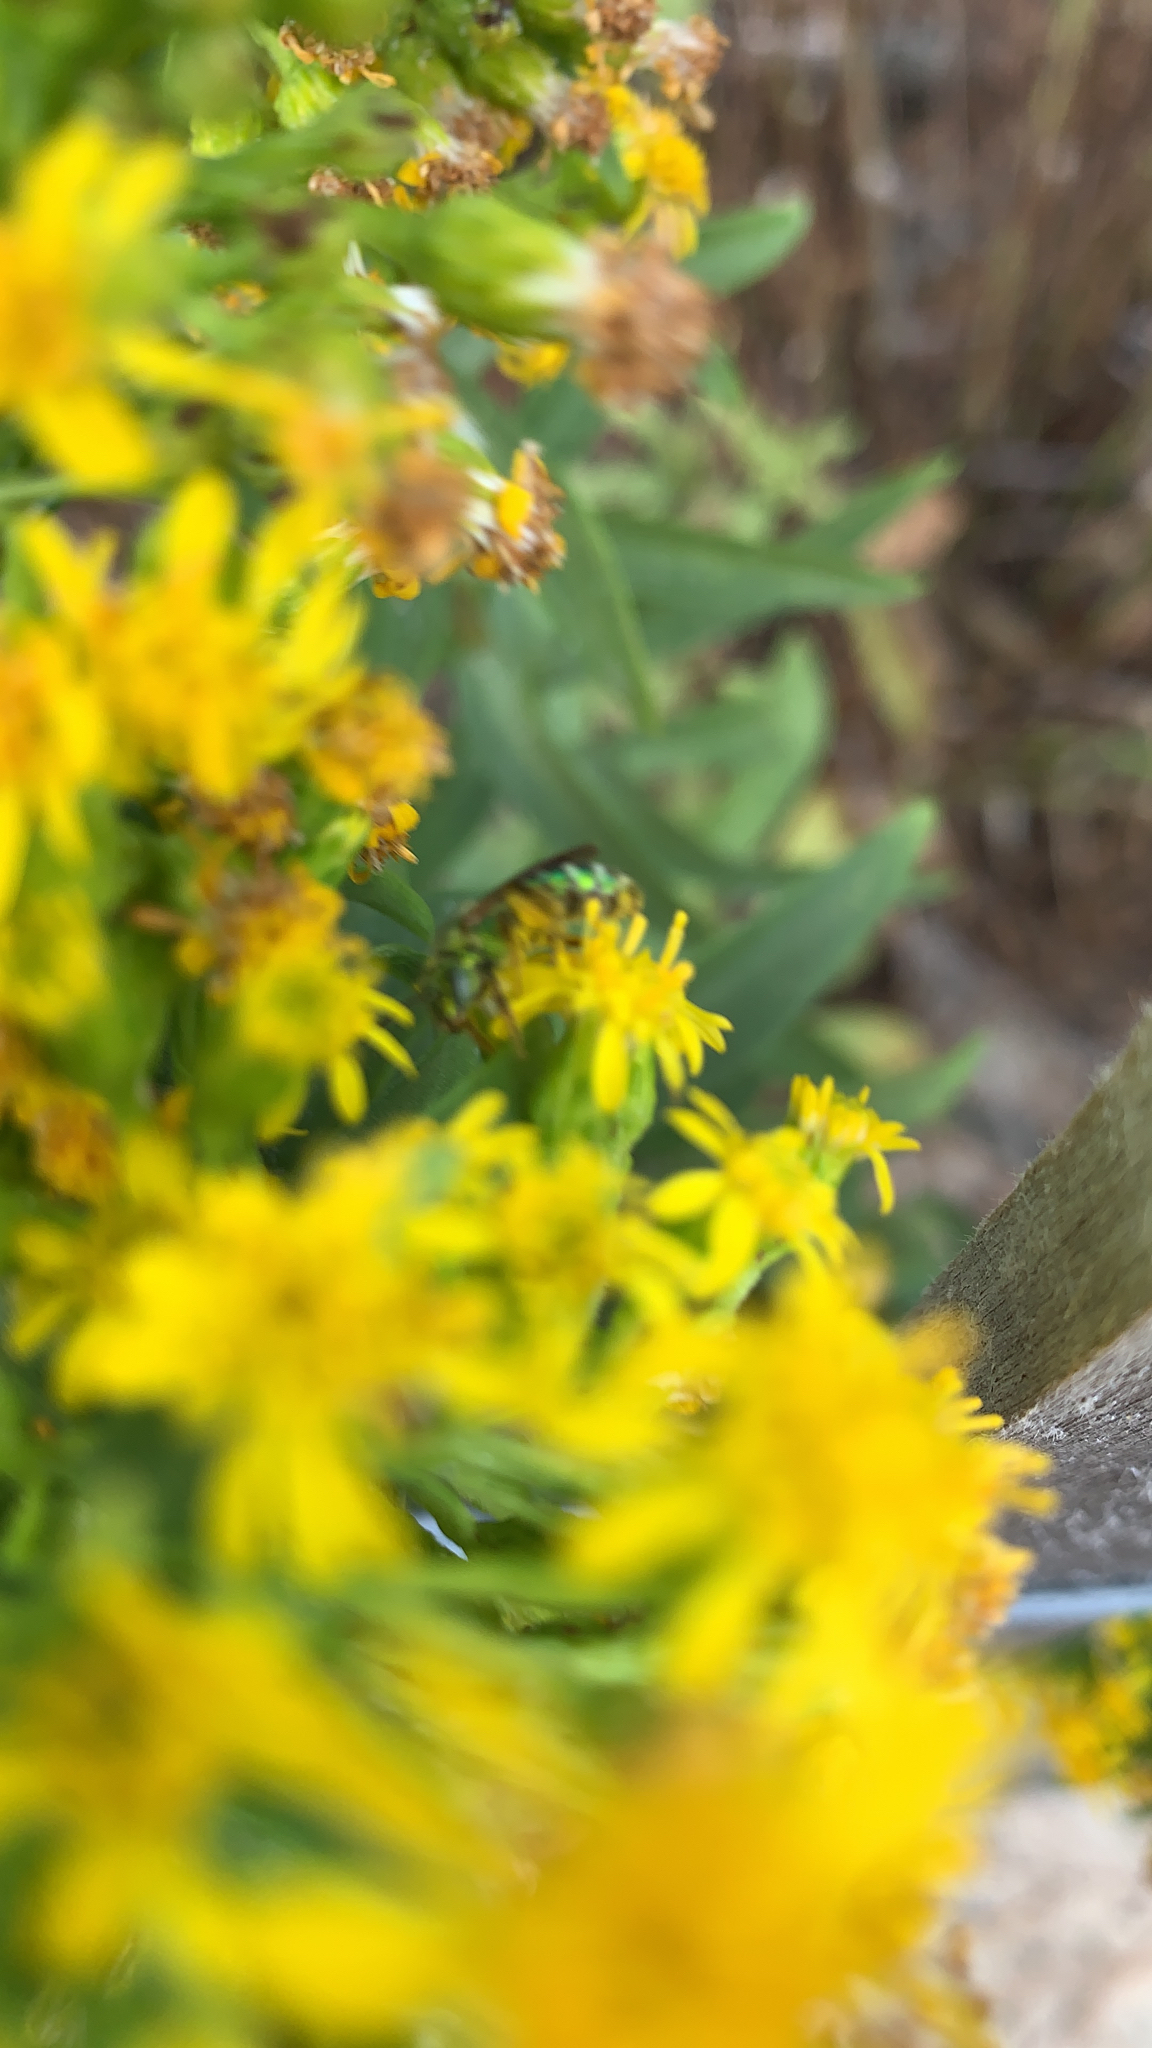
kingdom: Animalia
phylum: Arthropoda
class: Insecta
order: Hymenoptera
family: Halictidae
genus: Agapostemon
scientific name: Agapostemon splendens
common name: Brown-winged striped sweat bee
